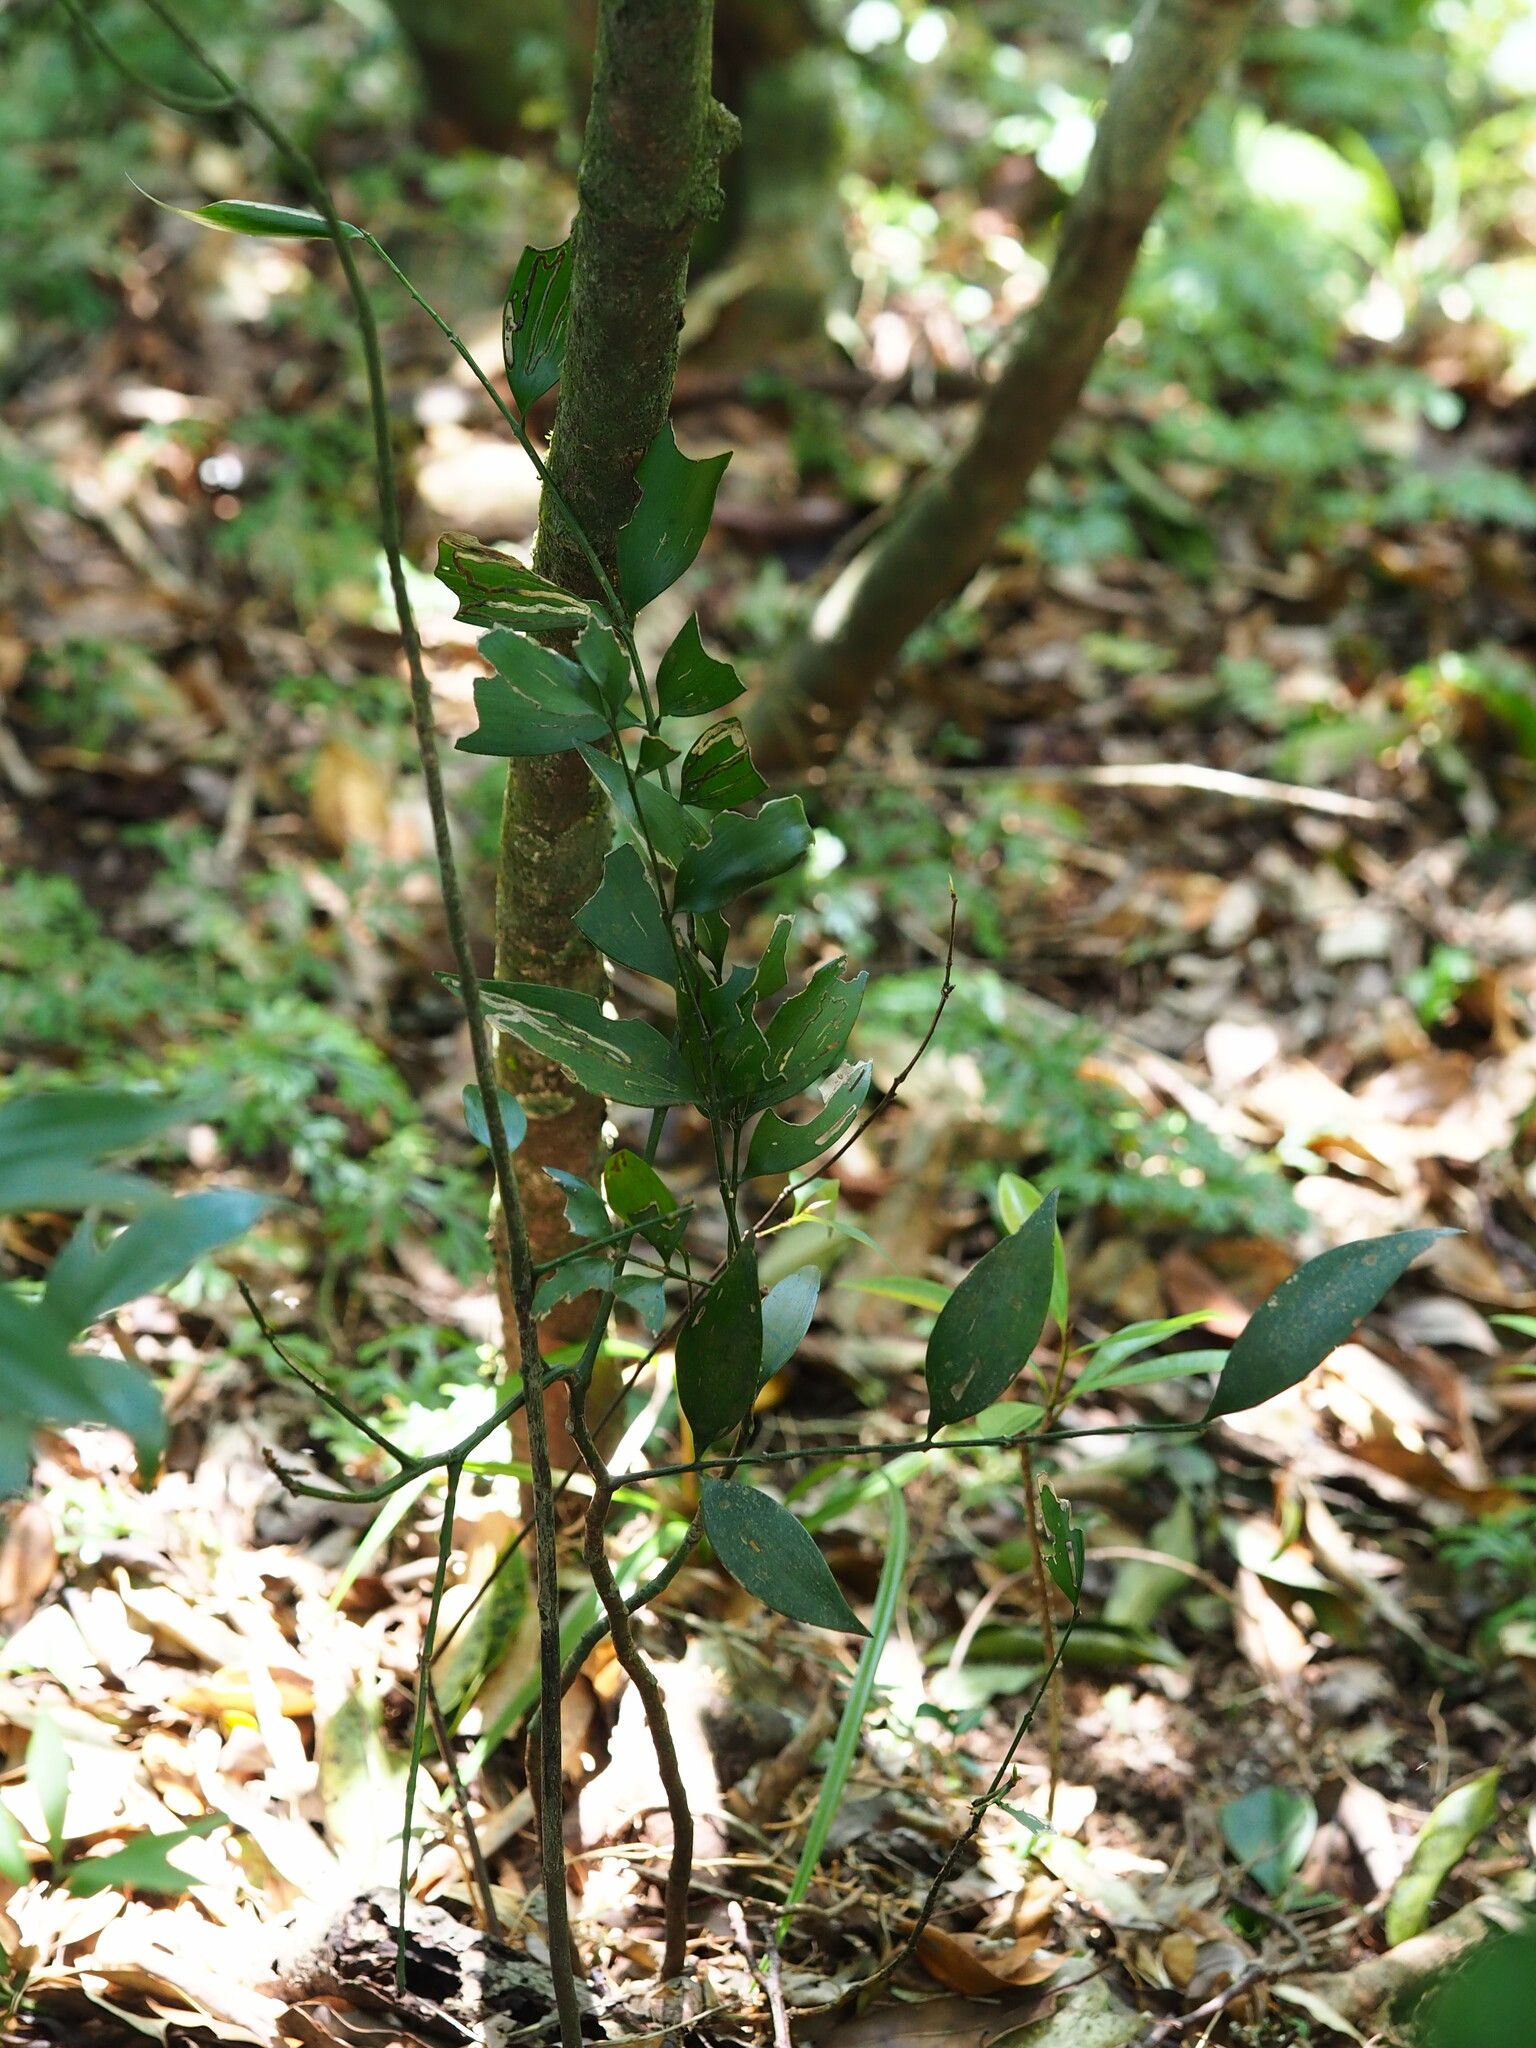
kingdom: Plantae
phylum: Tracheophyta
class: Pinopsida
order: Pinales
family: Podocarpaceae
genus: Nageia
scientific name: Nageia nagi
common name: Kaphal
